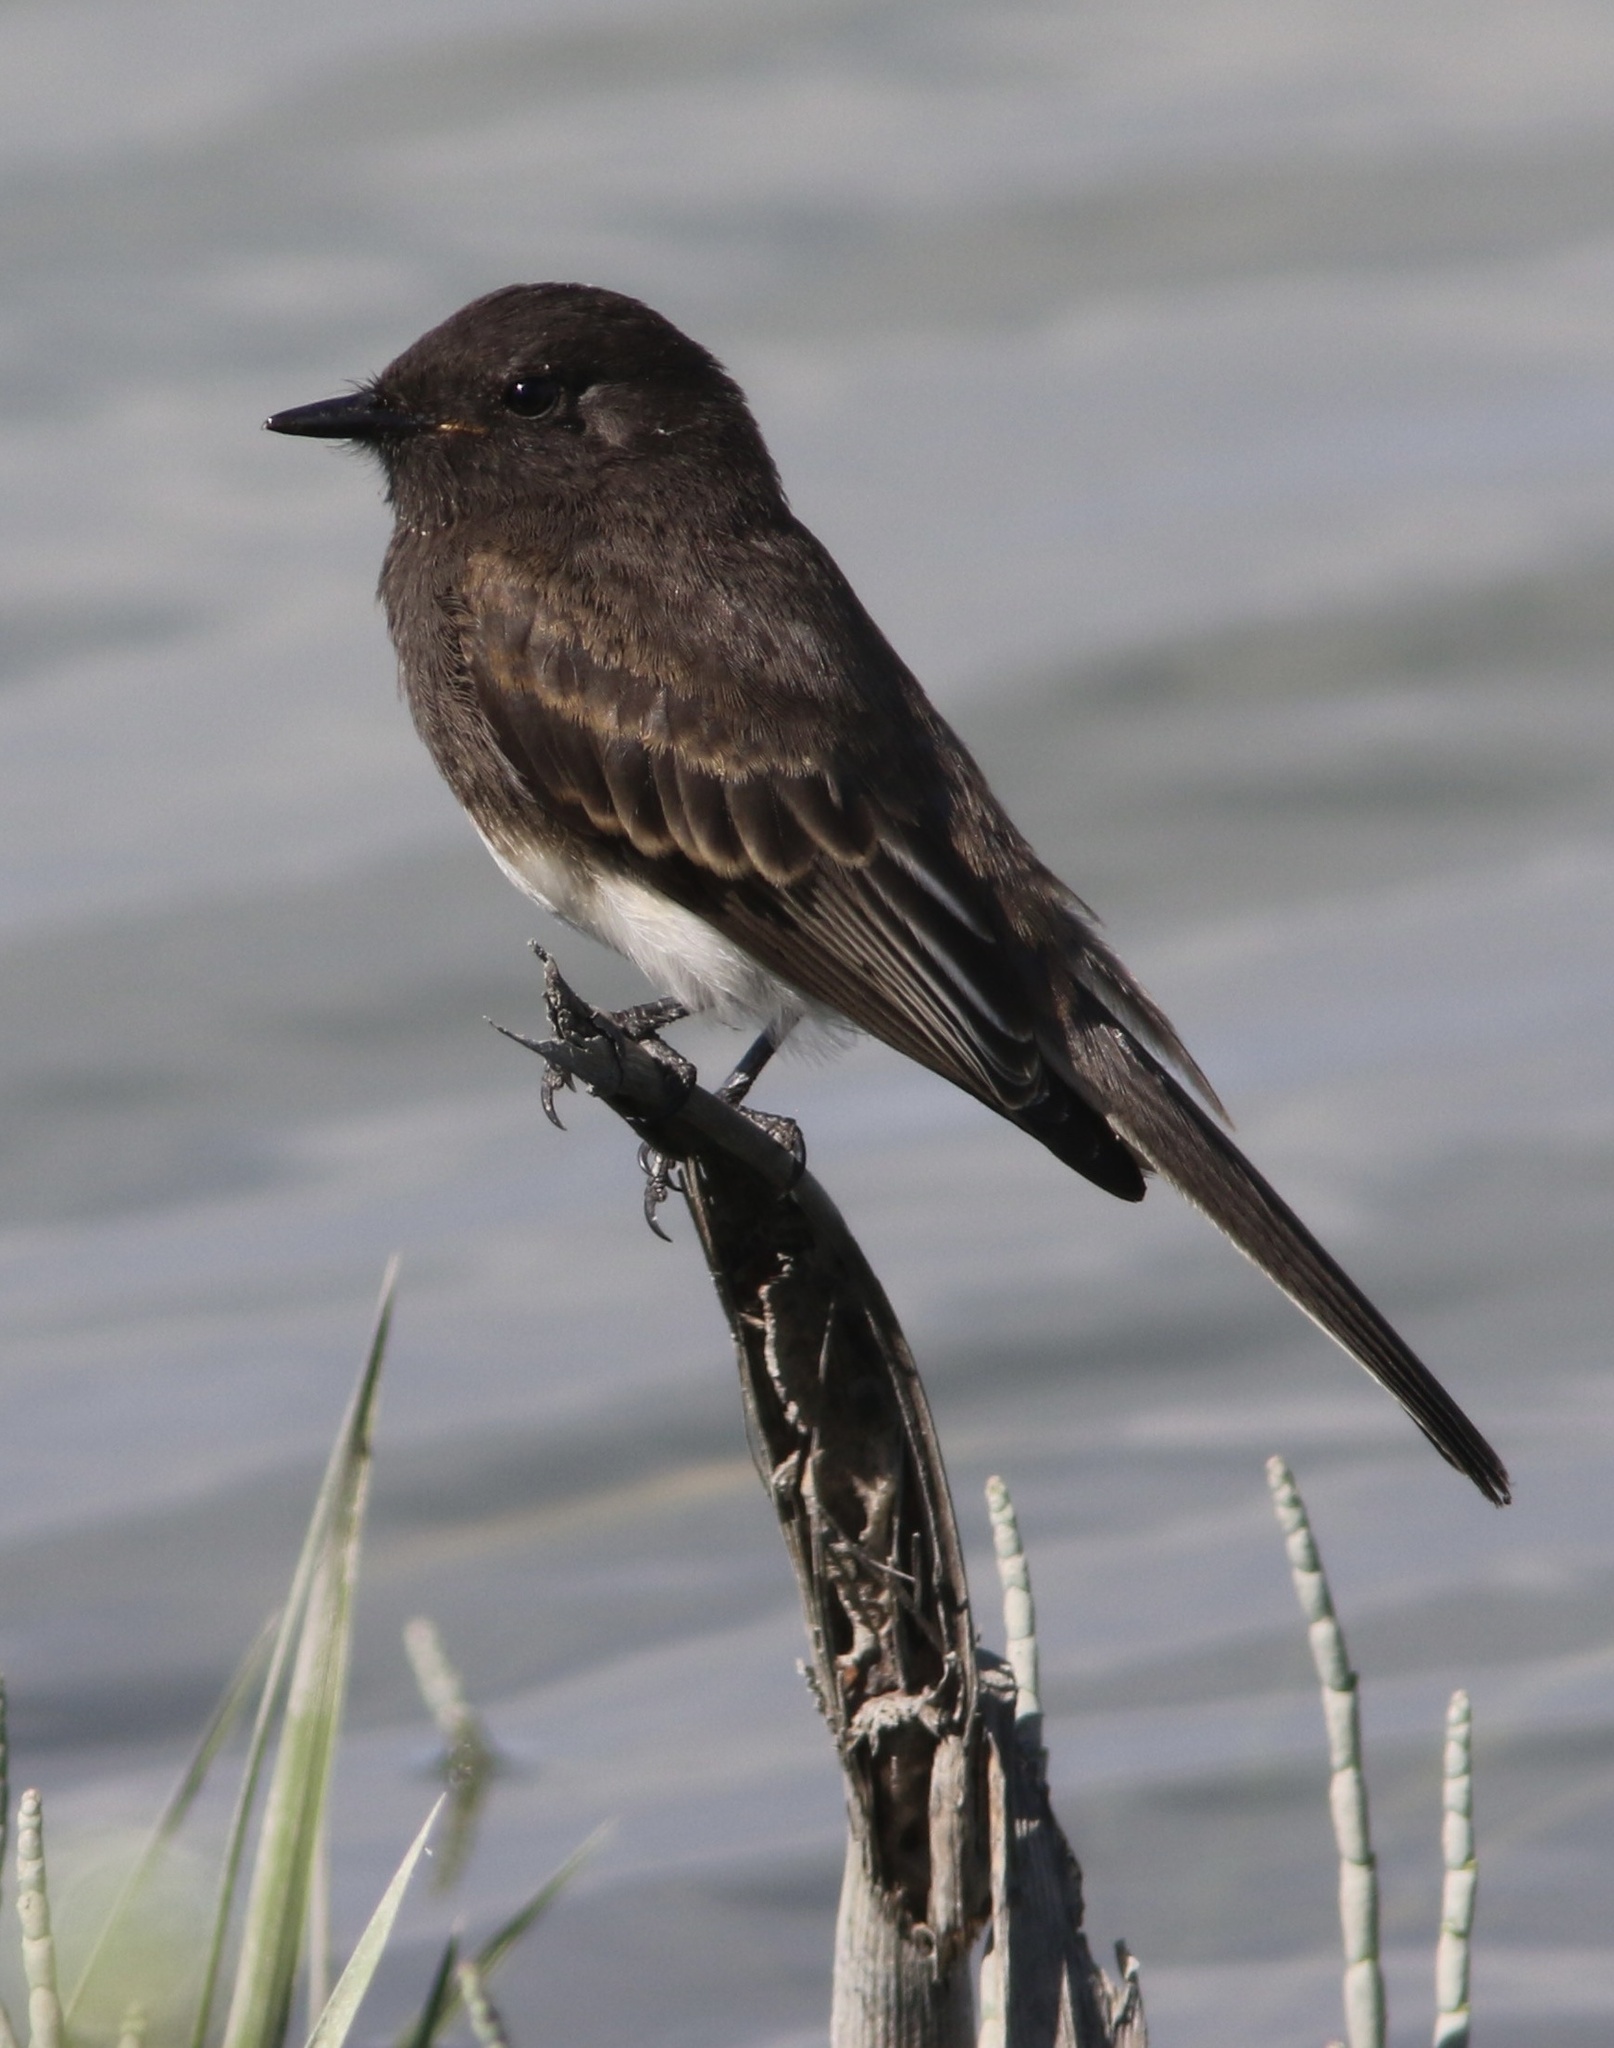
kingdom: Animalia
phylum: Chordata
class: Aves
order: Passeriformes
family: Tyrannidae
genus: Sayornis
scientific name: Sayornis nigricans
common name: Black phoebe
